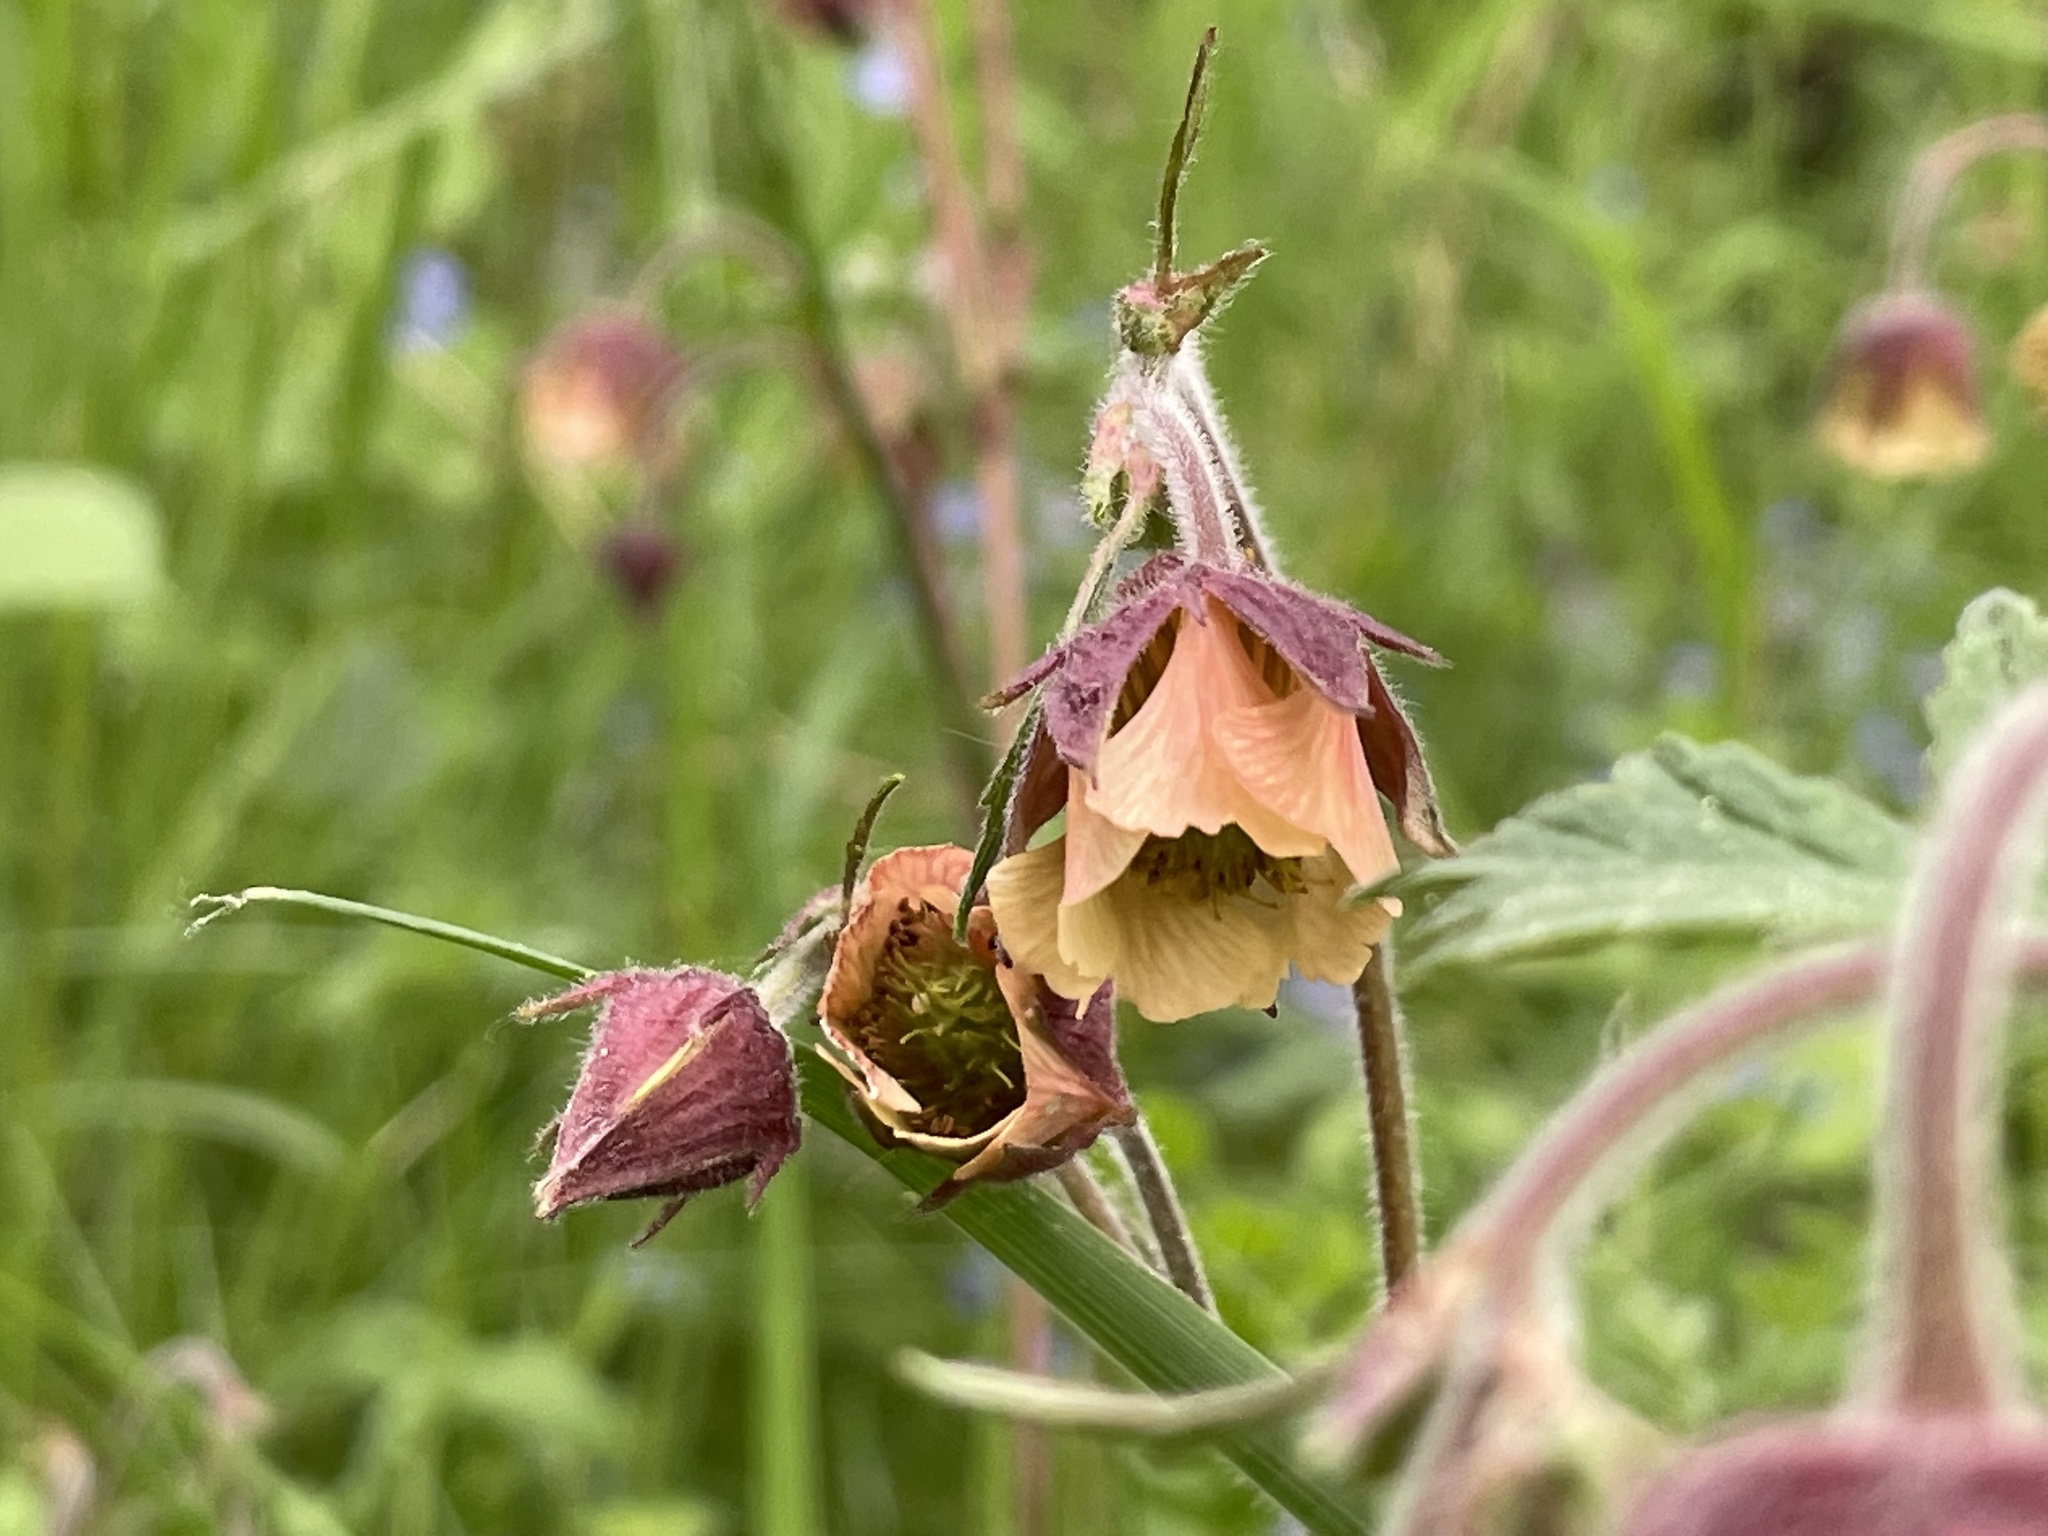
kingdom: Plantae
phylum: Tracheophyta
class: Magnoliopsida
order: Rosales
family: Rosaceae
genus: Geum
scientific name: Geum rivale
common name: Water avens
